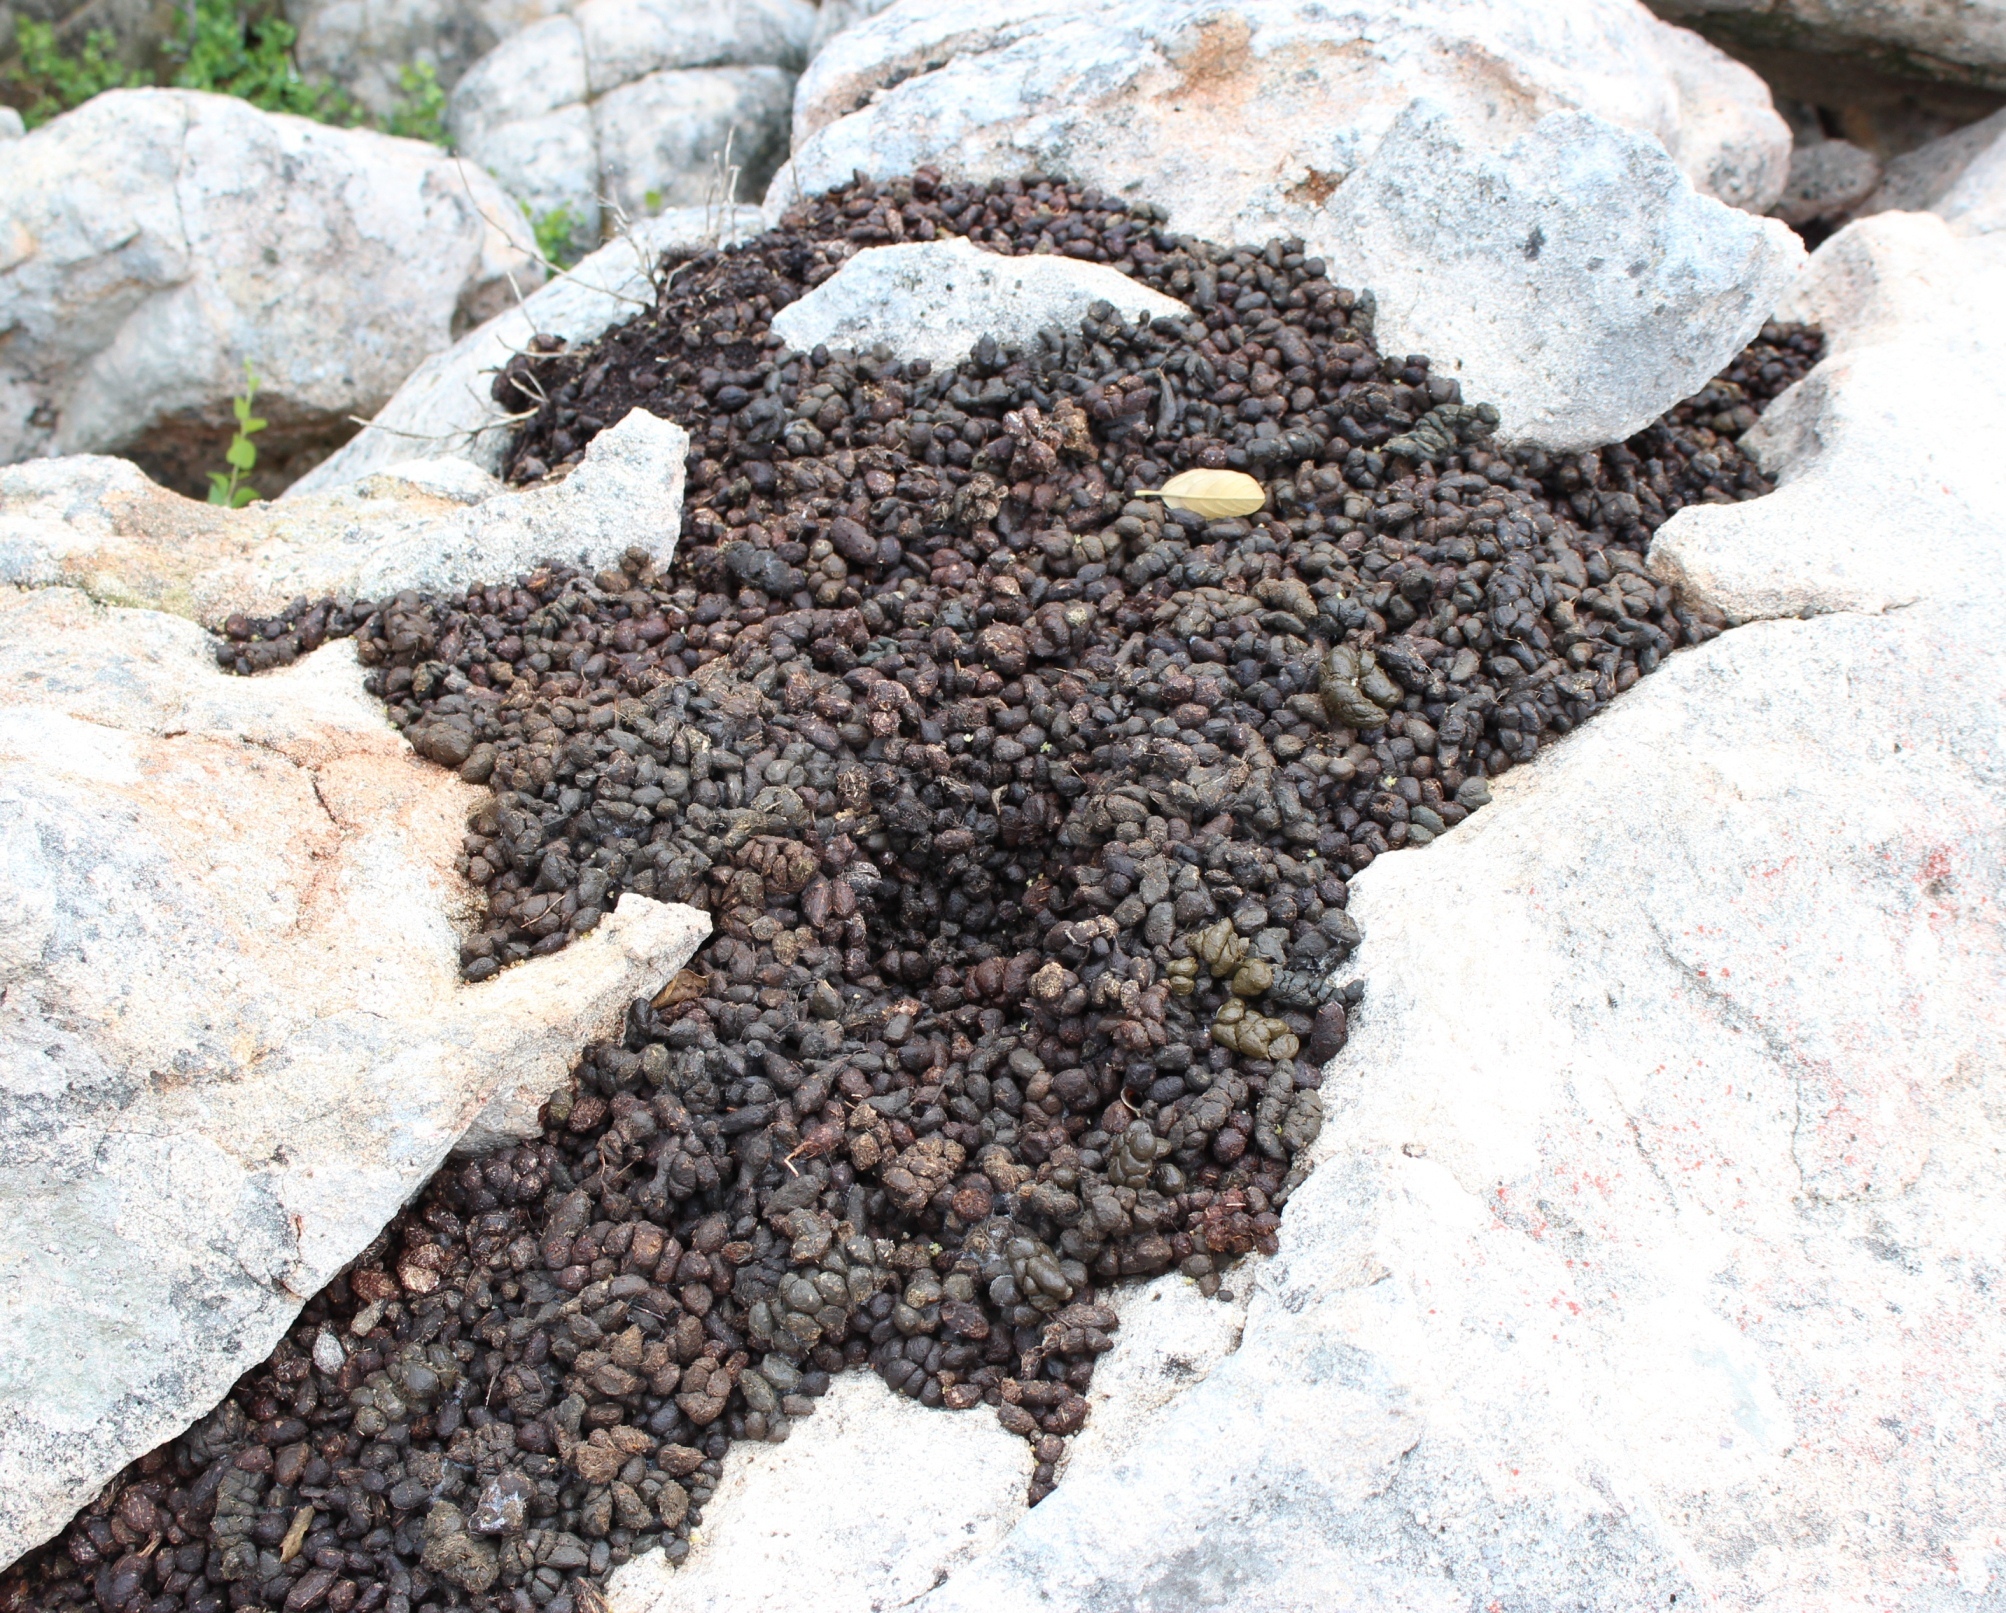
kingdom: Animalia
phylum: Chordata
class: Mammalia
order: Hyracoidea
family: Procaviidae
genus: Procavia
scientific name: Procavia capensis
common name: Rock hyrax
